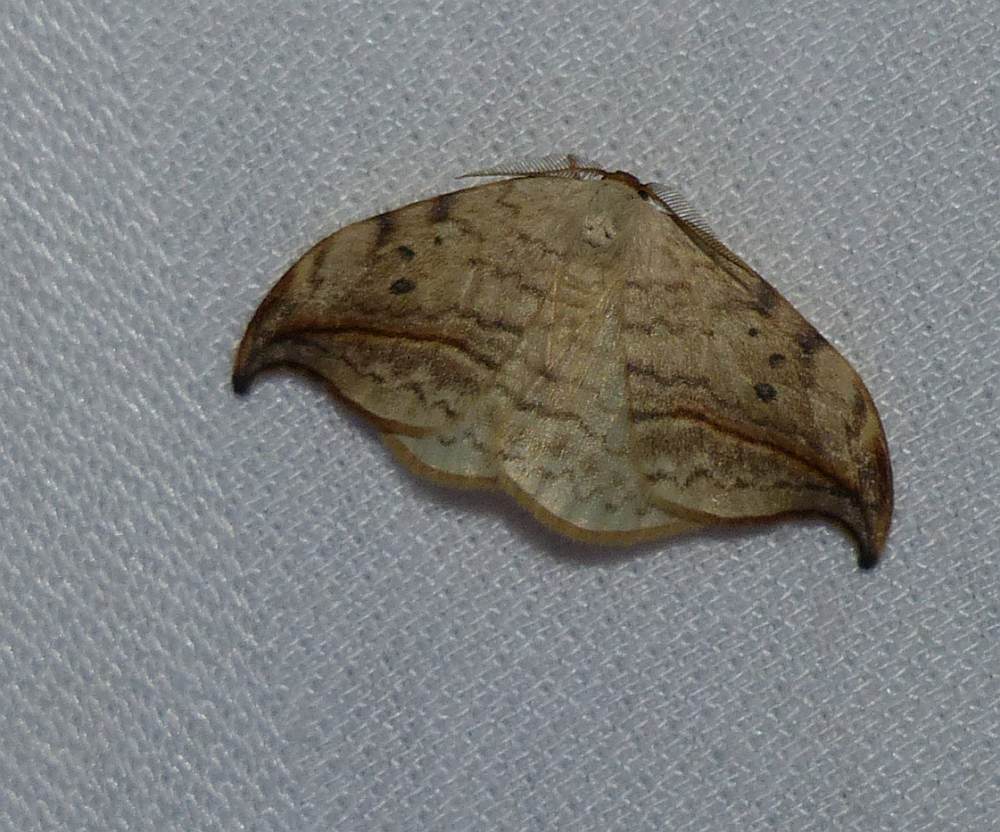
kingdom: Animalia
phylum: Arthropoda
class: Insecta
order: Lepidoptera
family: Drepanidae
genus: Drepana
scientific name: Drepana arcuata
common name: Arched hooktip moth
